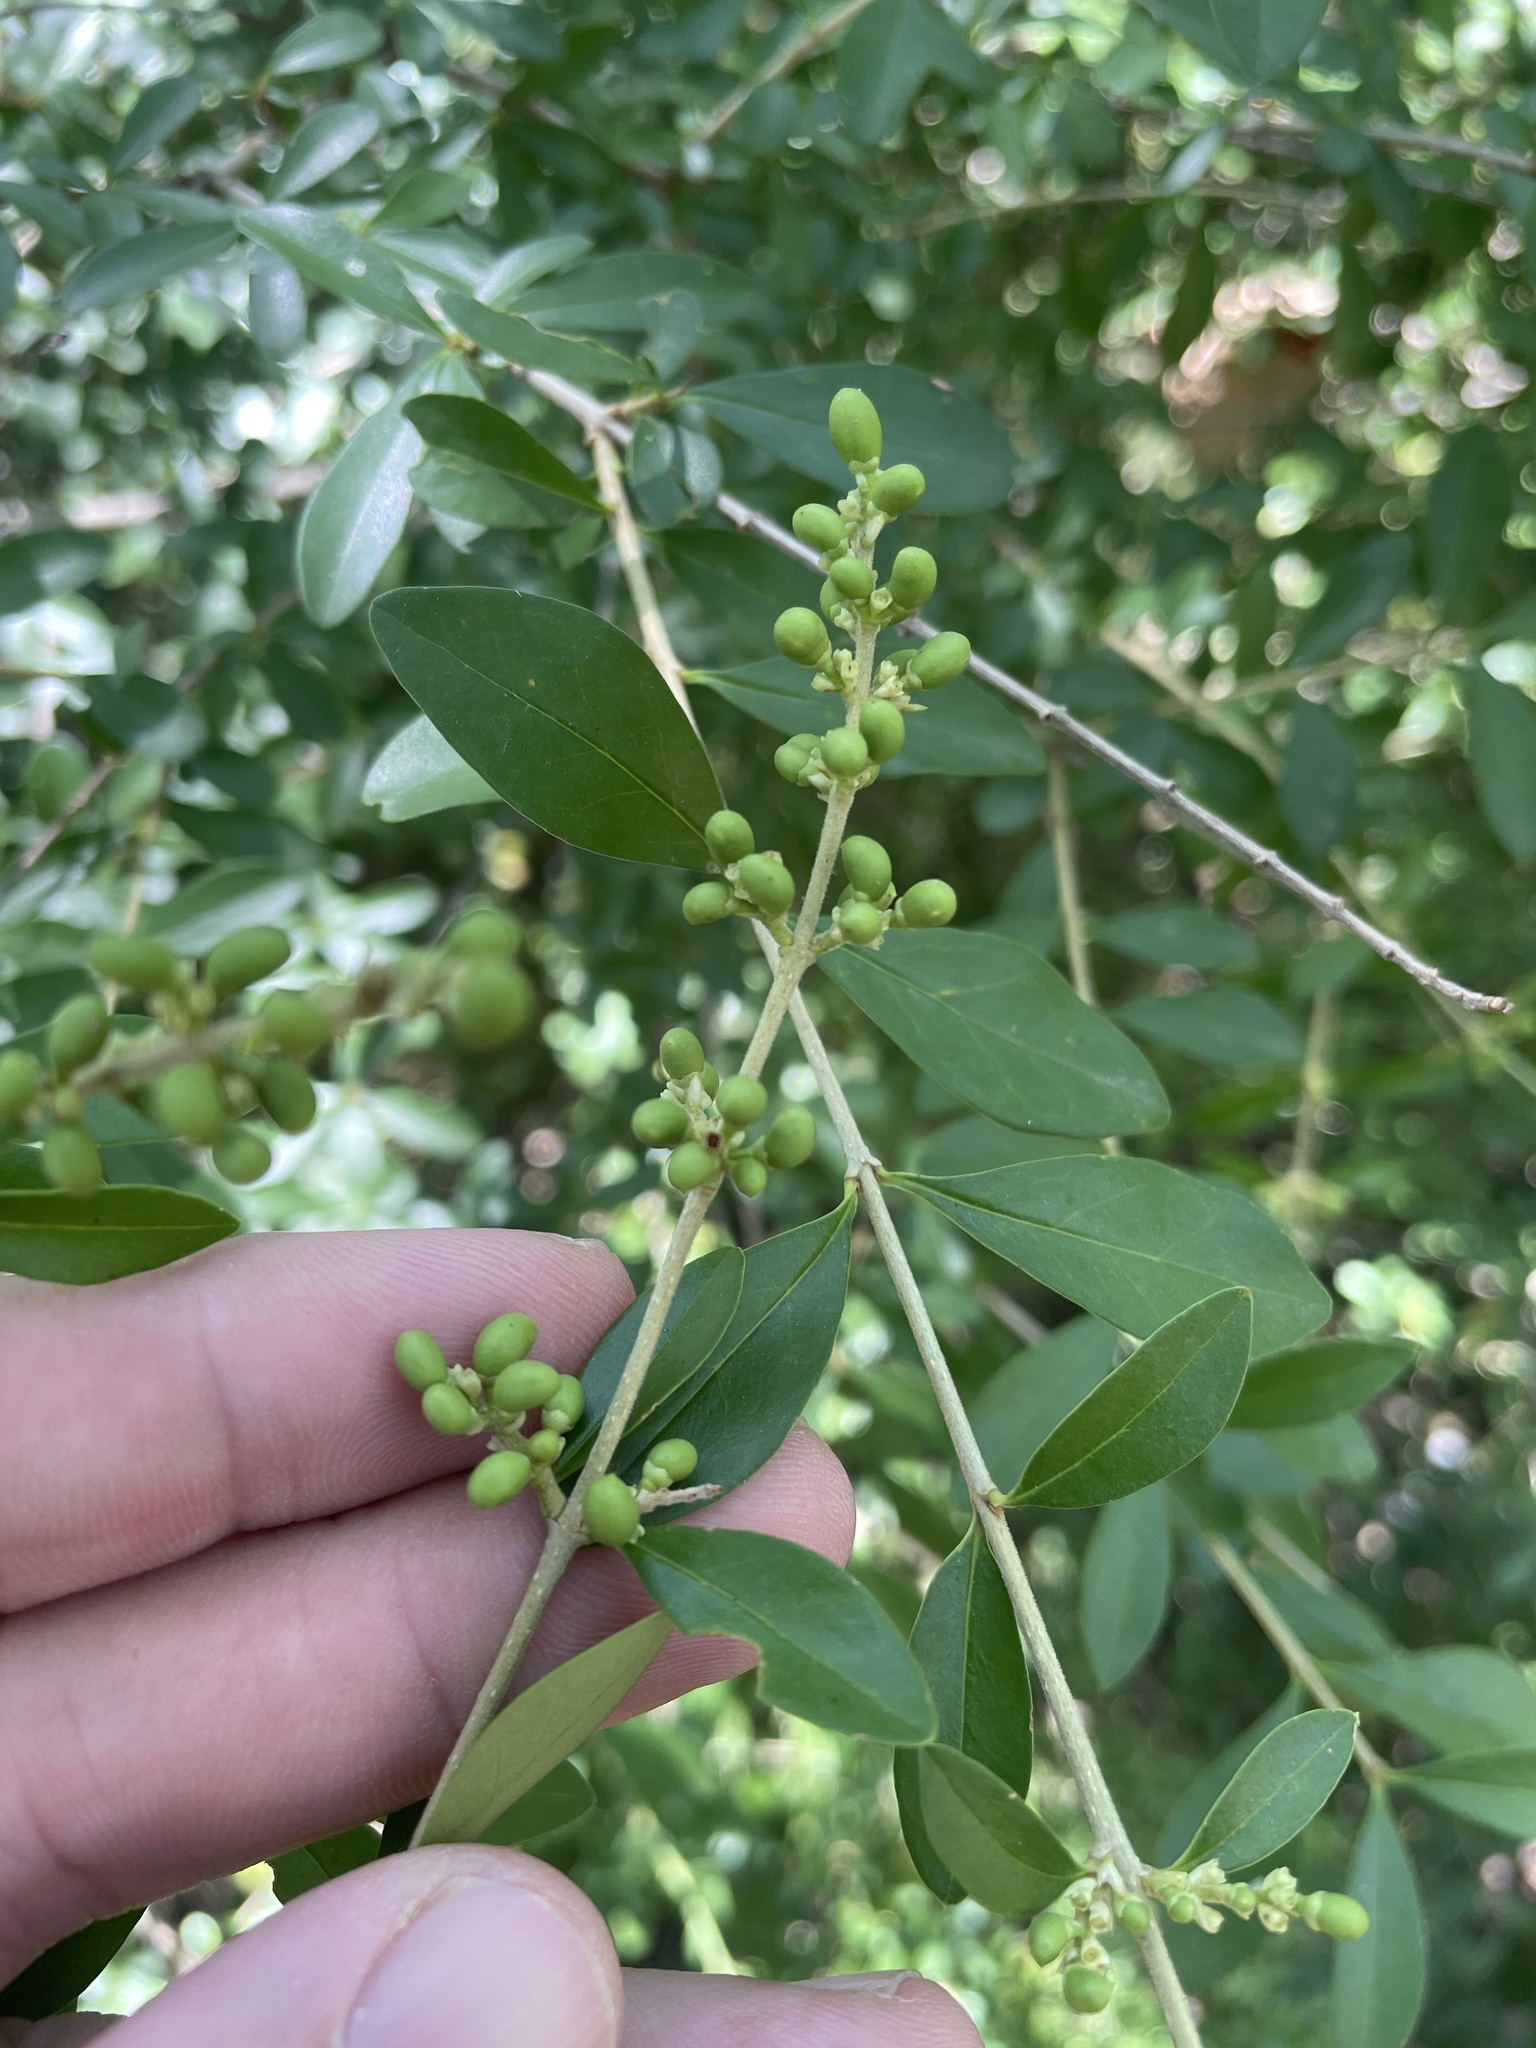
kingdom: Plantae
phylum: Tracheophyta
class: Magnoliopsida
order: Lamiales
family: Oleaceae
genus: Ligustrum
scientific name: Ligustrum quihoui
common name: Waxyleaf privet
